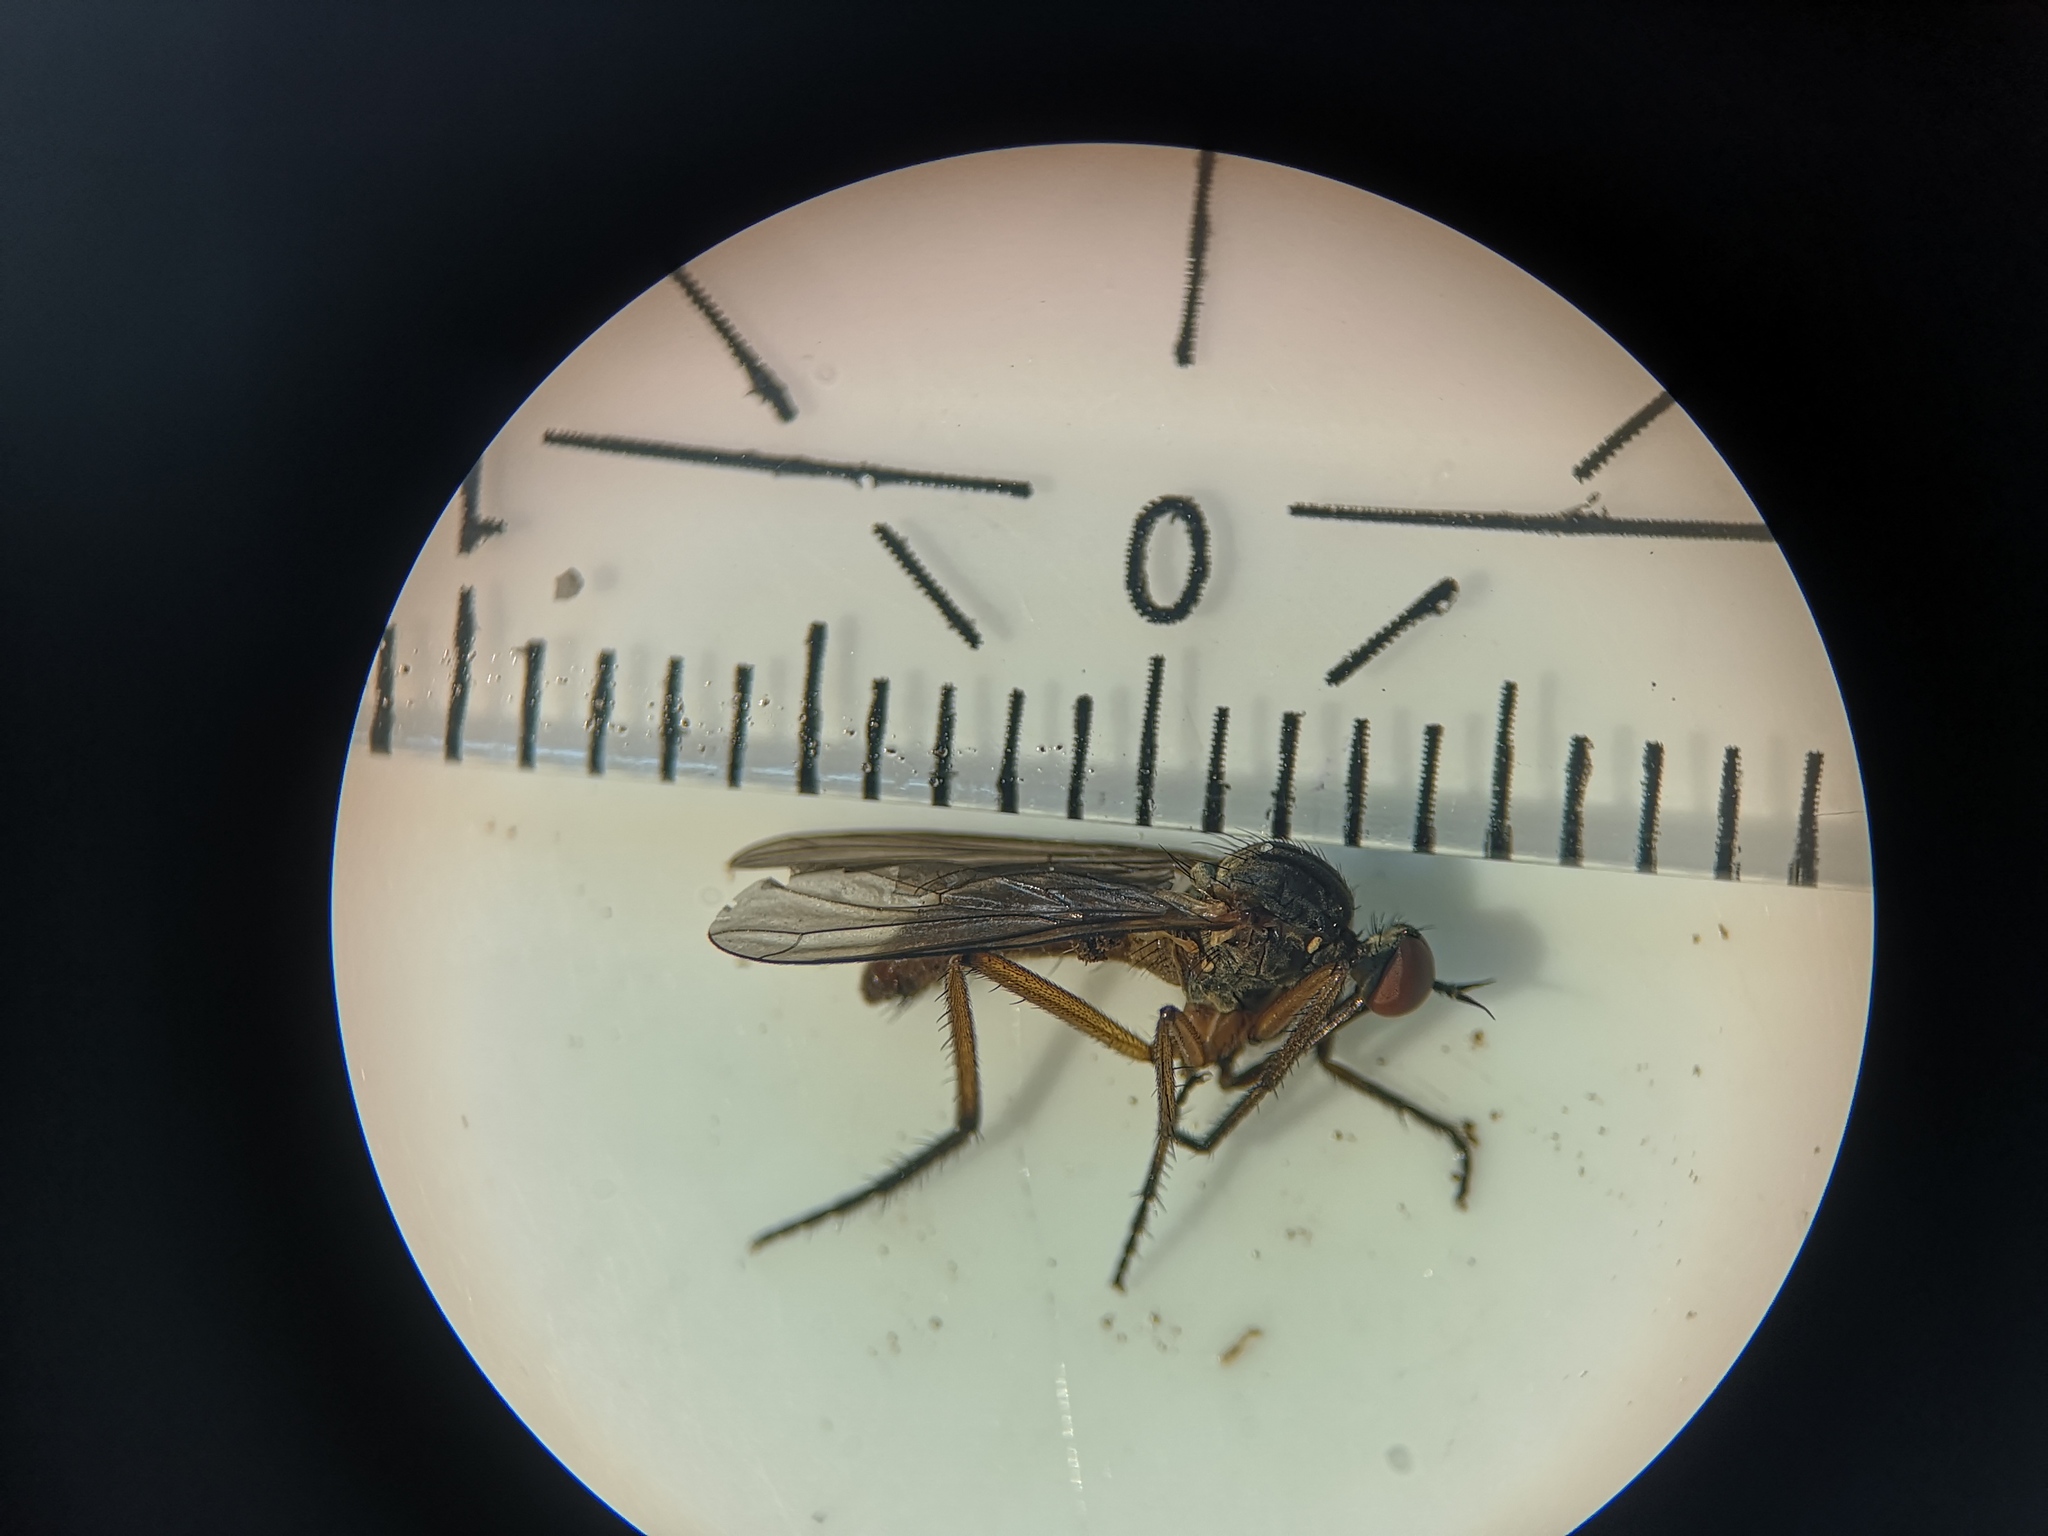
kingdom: Animalia
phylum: Arthropoda
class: Insecta
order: Diptera
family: Empididae
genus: Empis
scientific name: Empis livida
